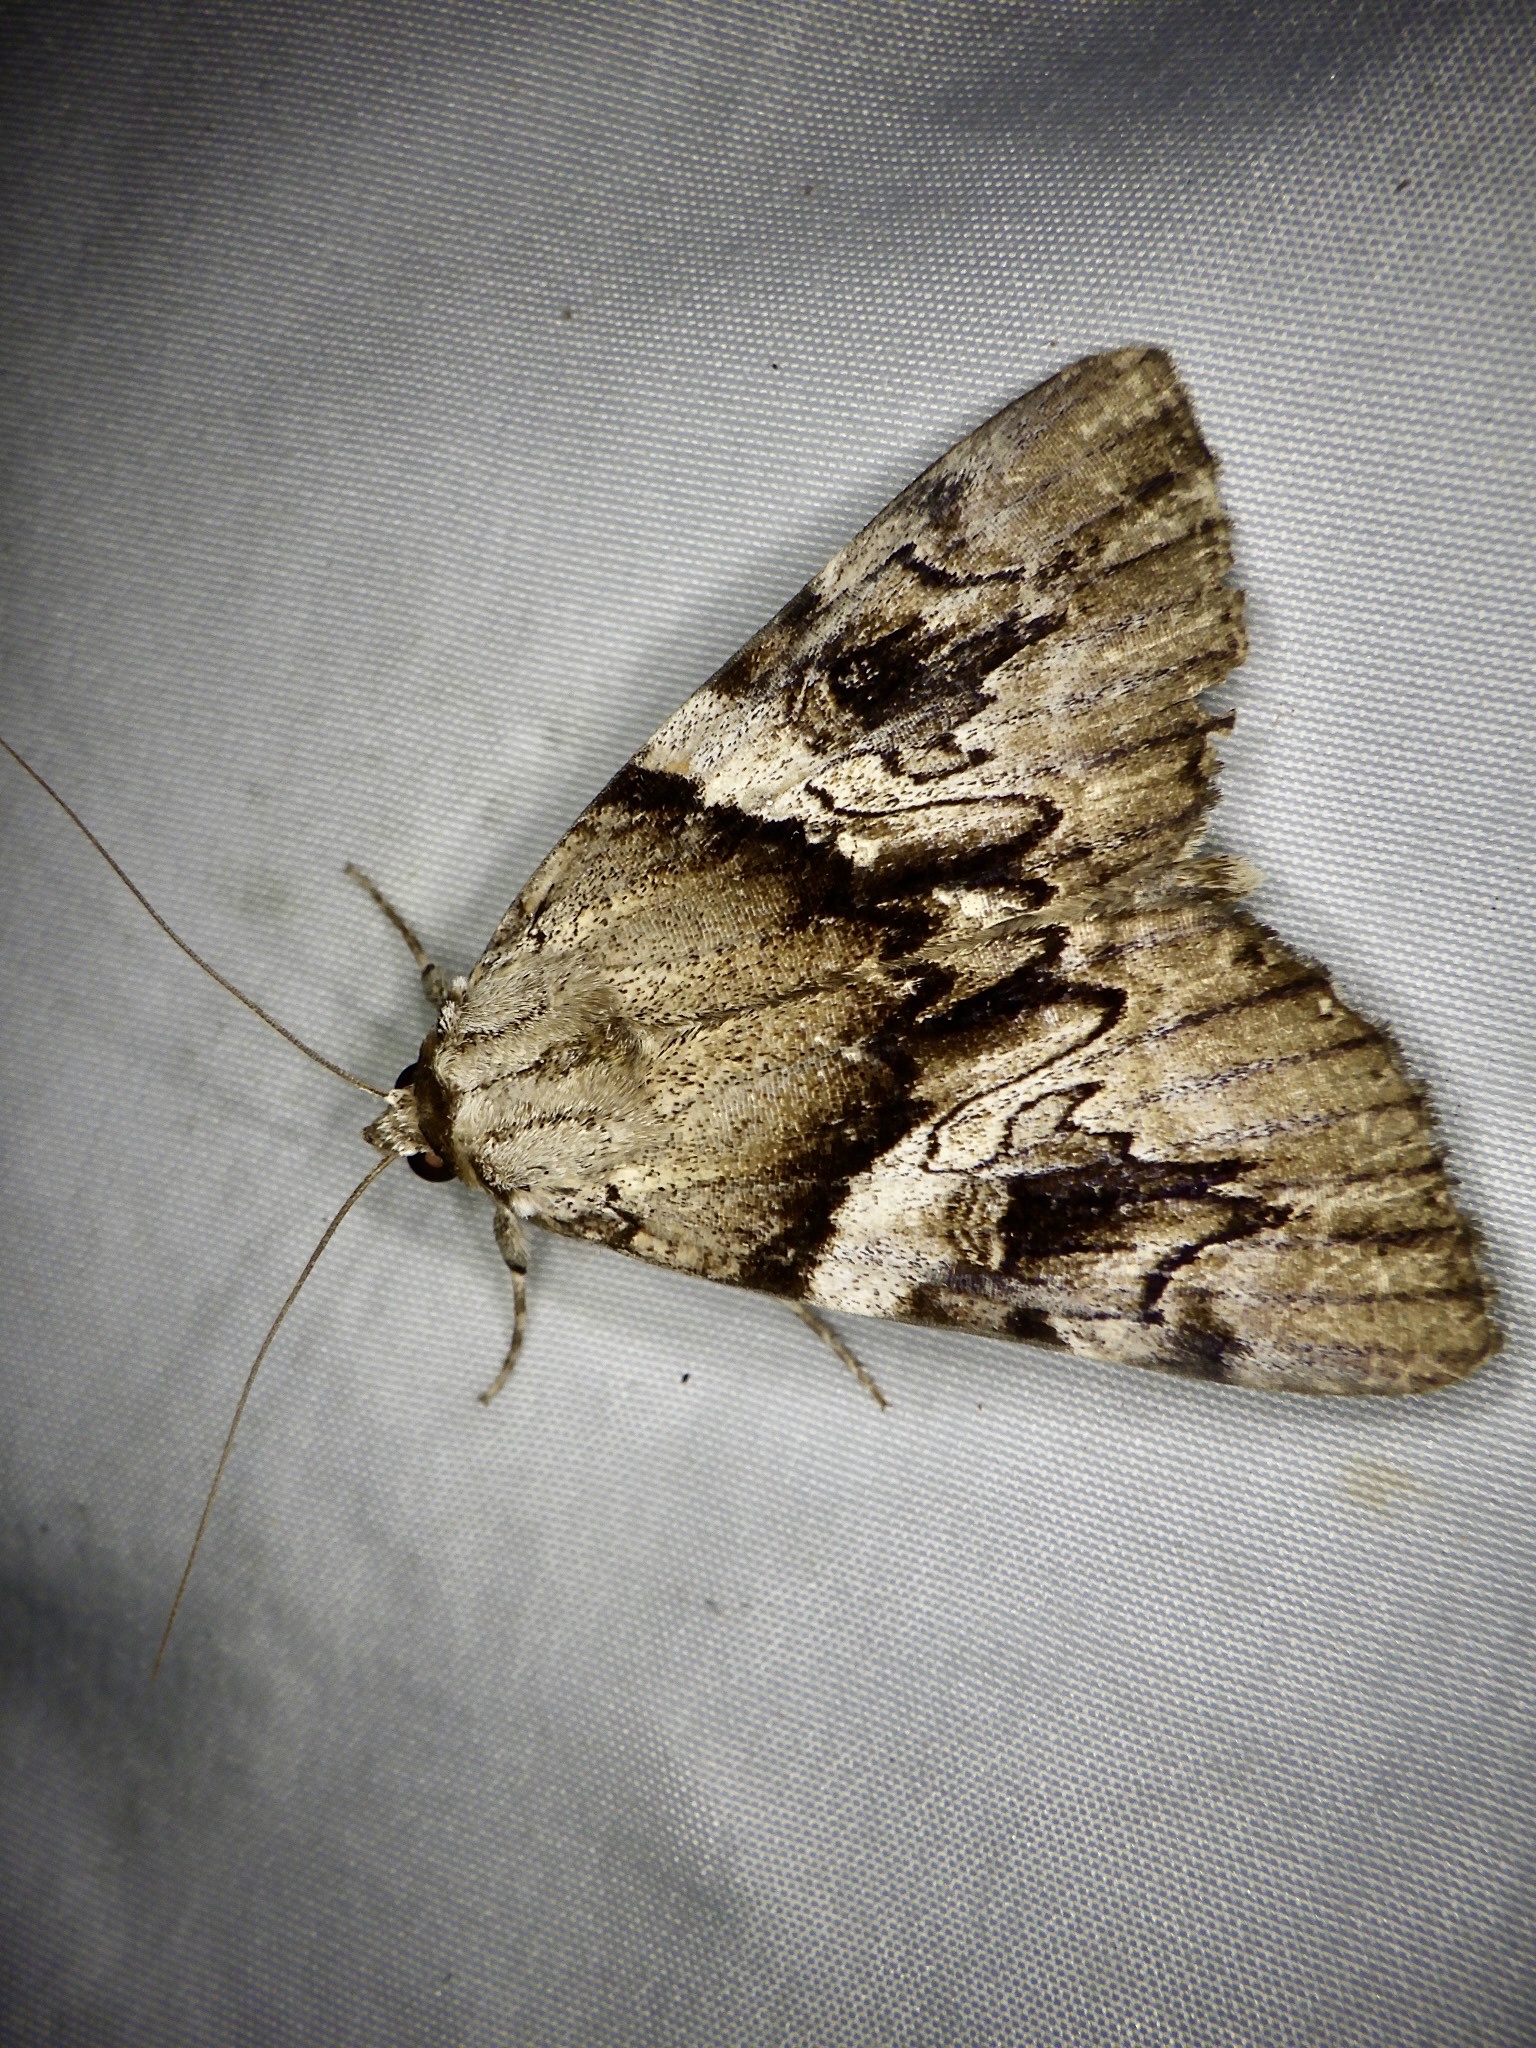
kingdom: Animalia
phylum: Arthropoda
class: Insecta
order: Lepidoptera
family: Erebidae
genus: Catocala
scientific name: Catocala
